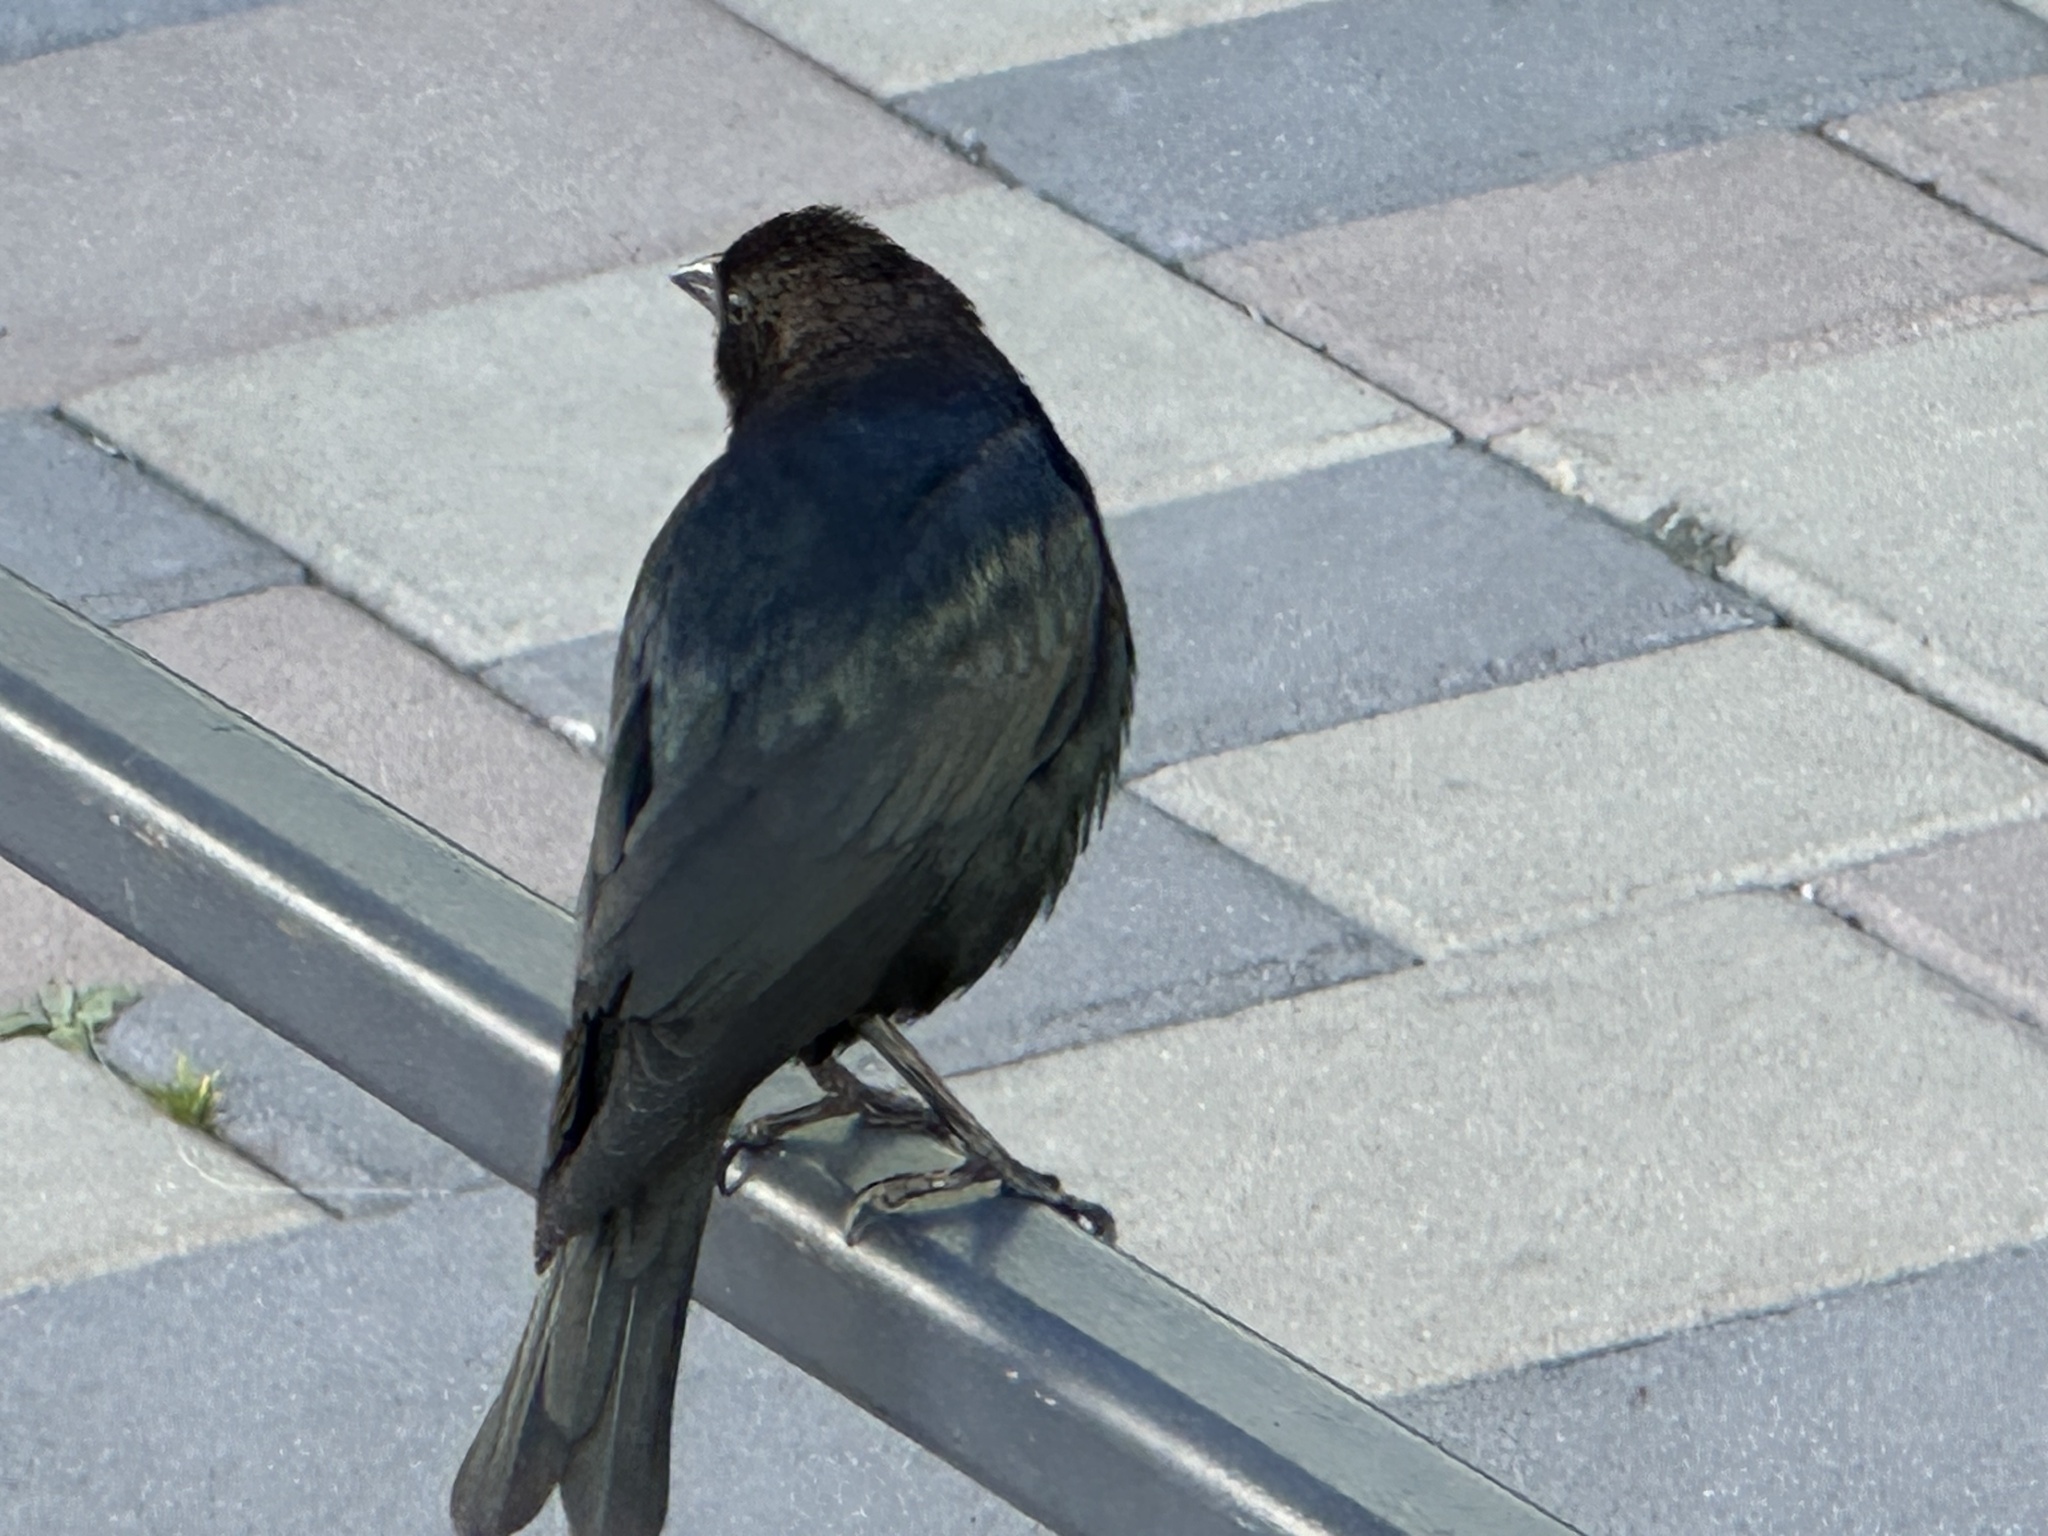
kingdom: Animalia
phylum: Chordata
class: Aves
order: Passeriformes
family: Icteridae
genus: Molothrus
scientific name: Molothrus ater
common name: Brown-headed cowbird
